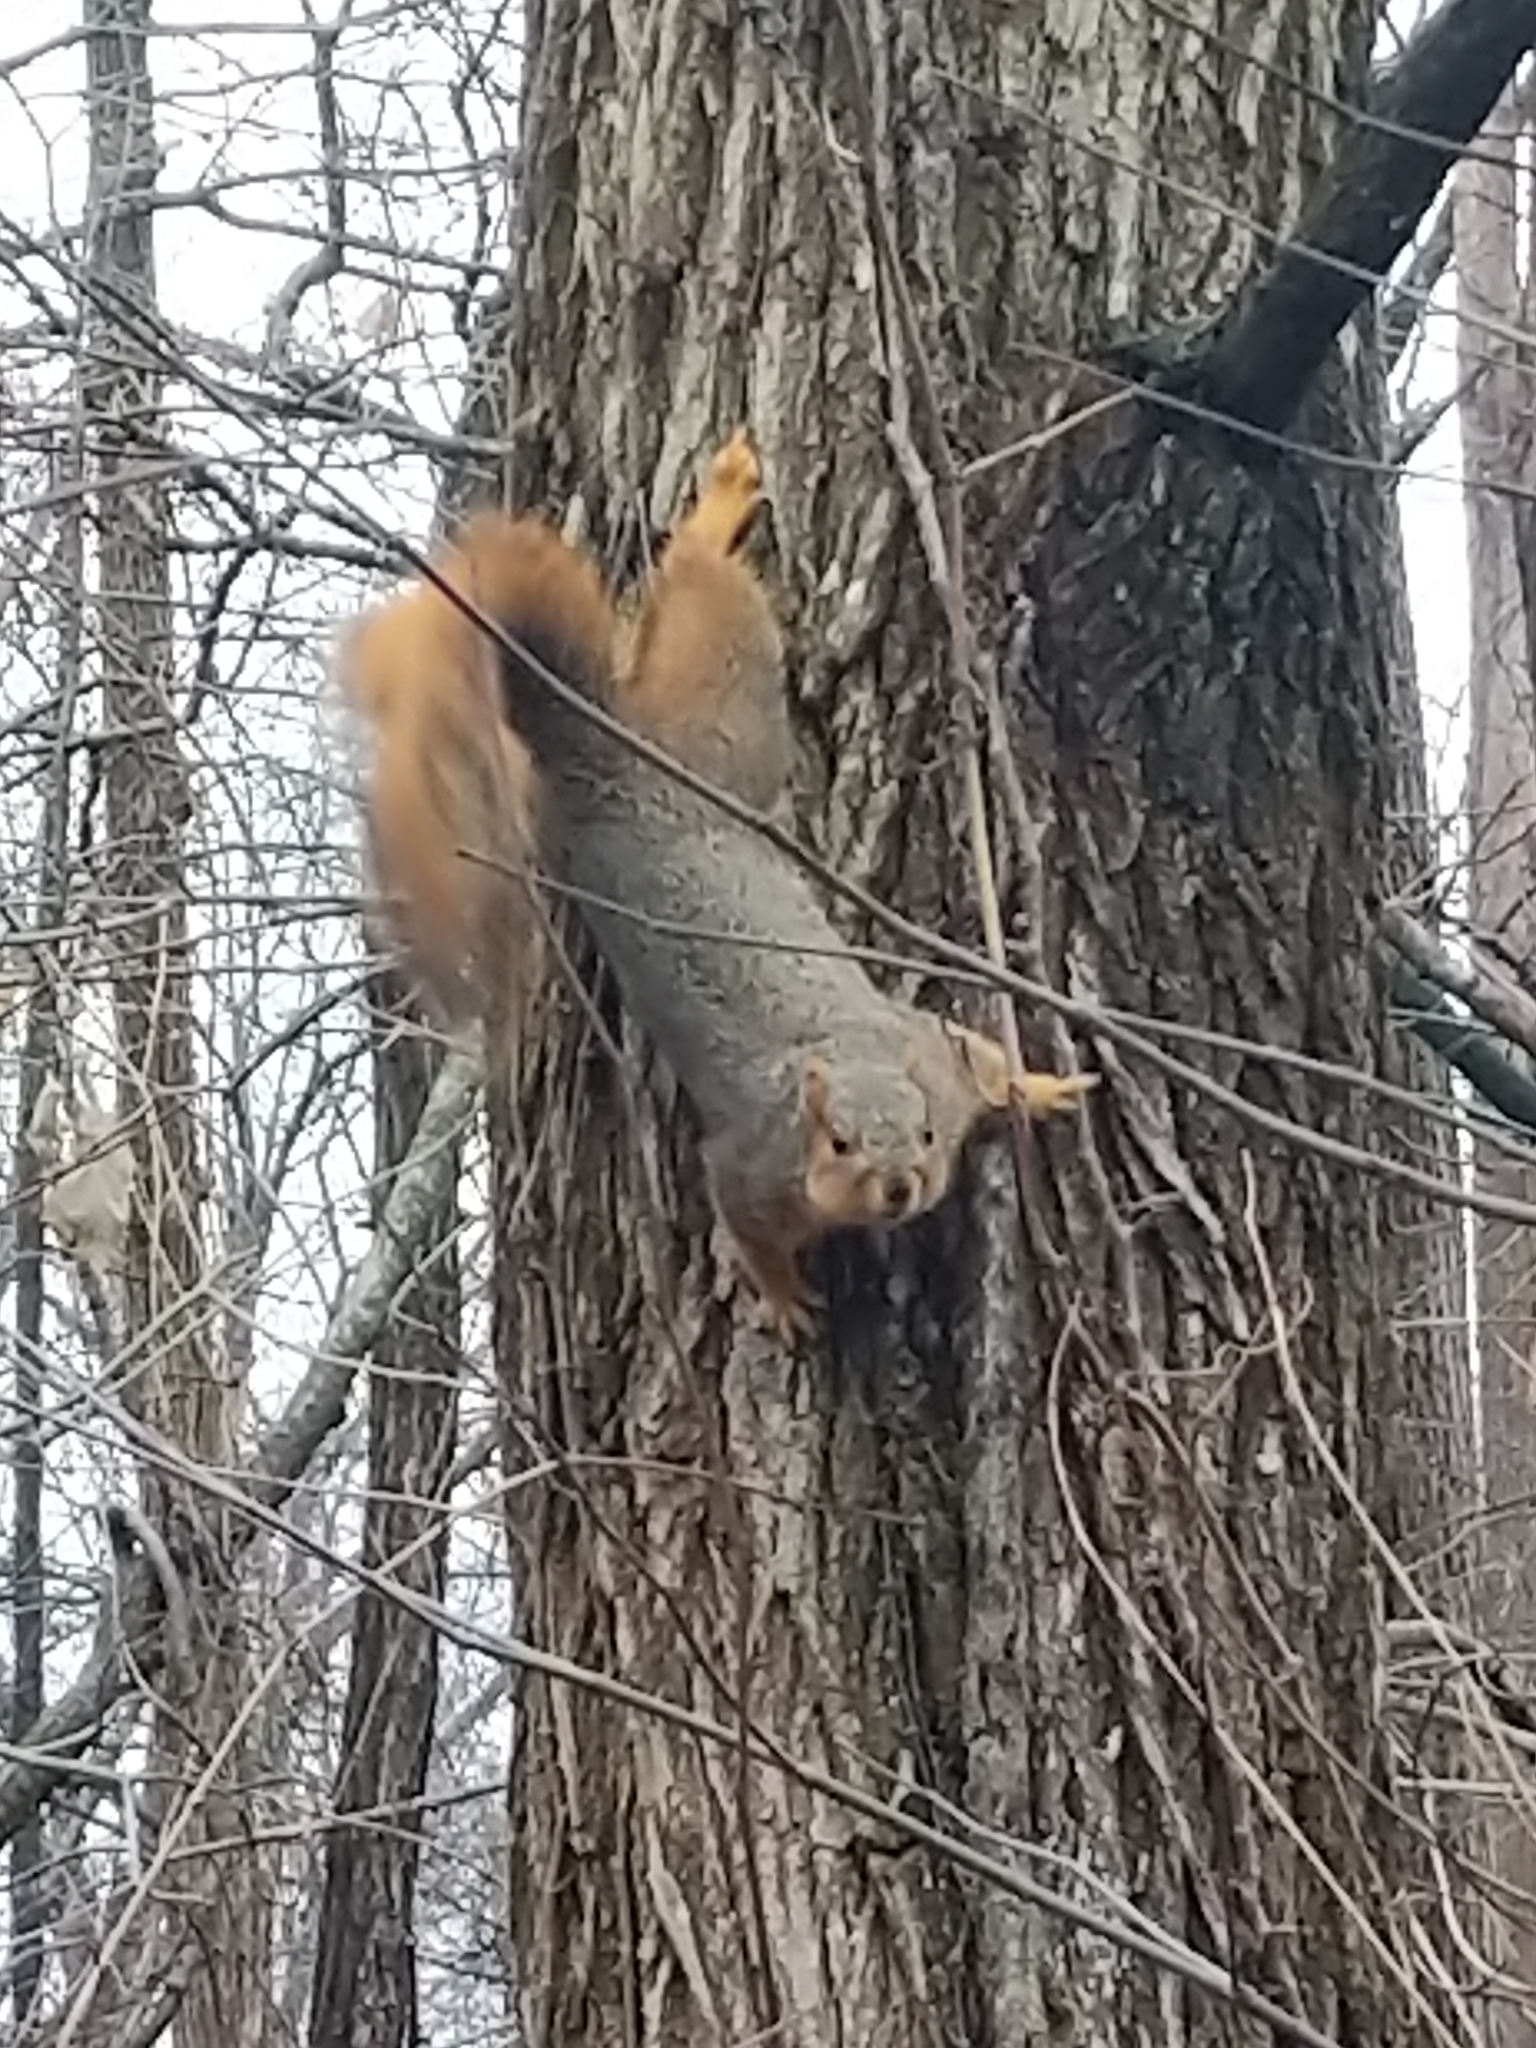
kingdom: Animalia
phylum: Chordata
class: Mammalia
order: Rodentia
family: Sciuridae
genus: Sciurus
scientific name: Sciurus niger
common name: Fox squirrel
